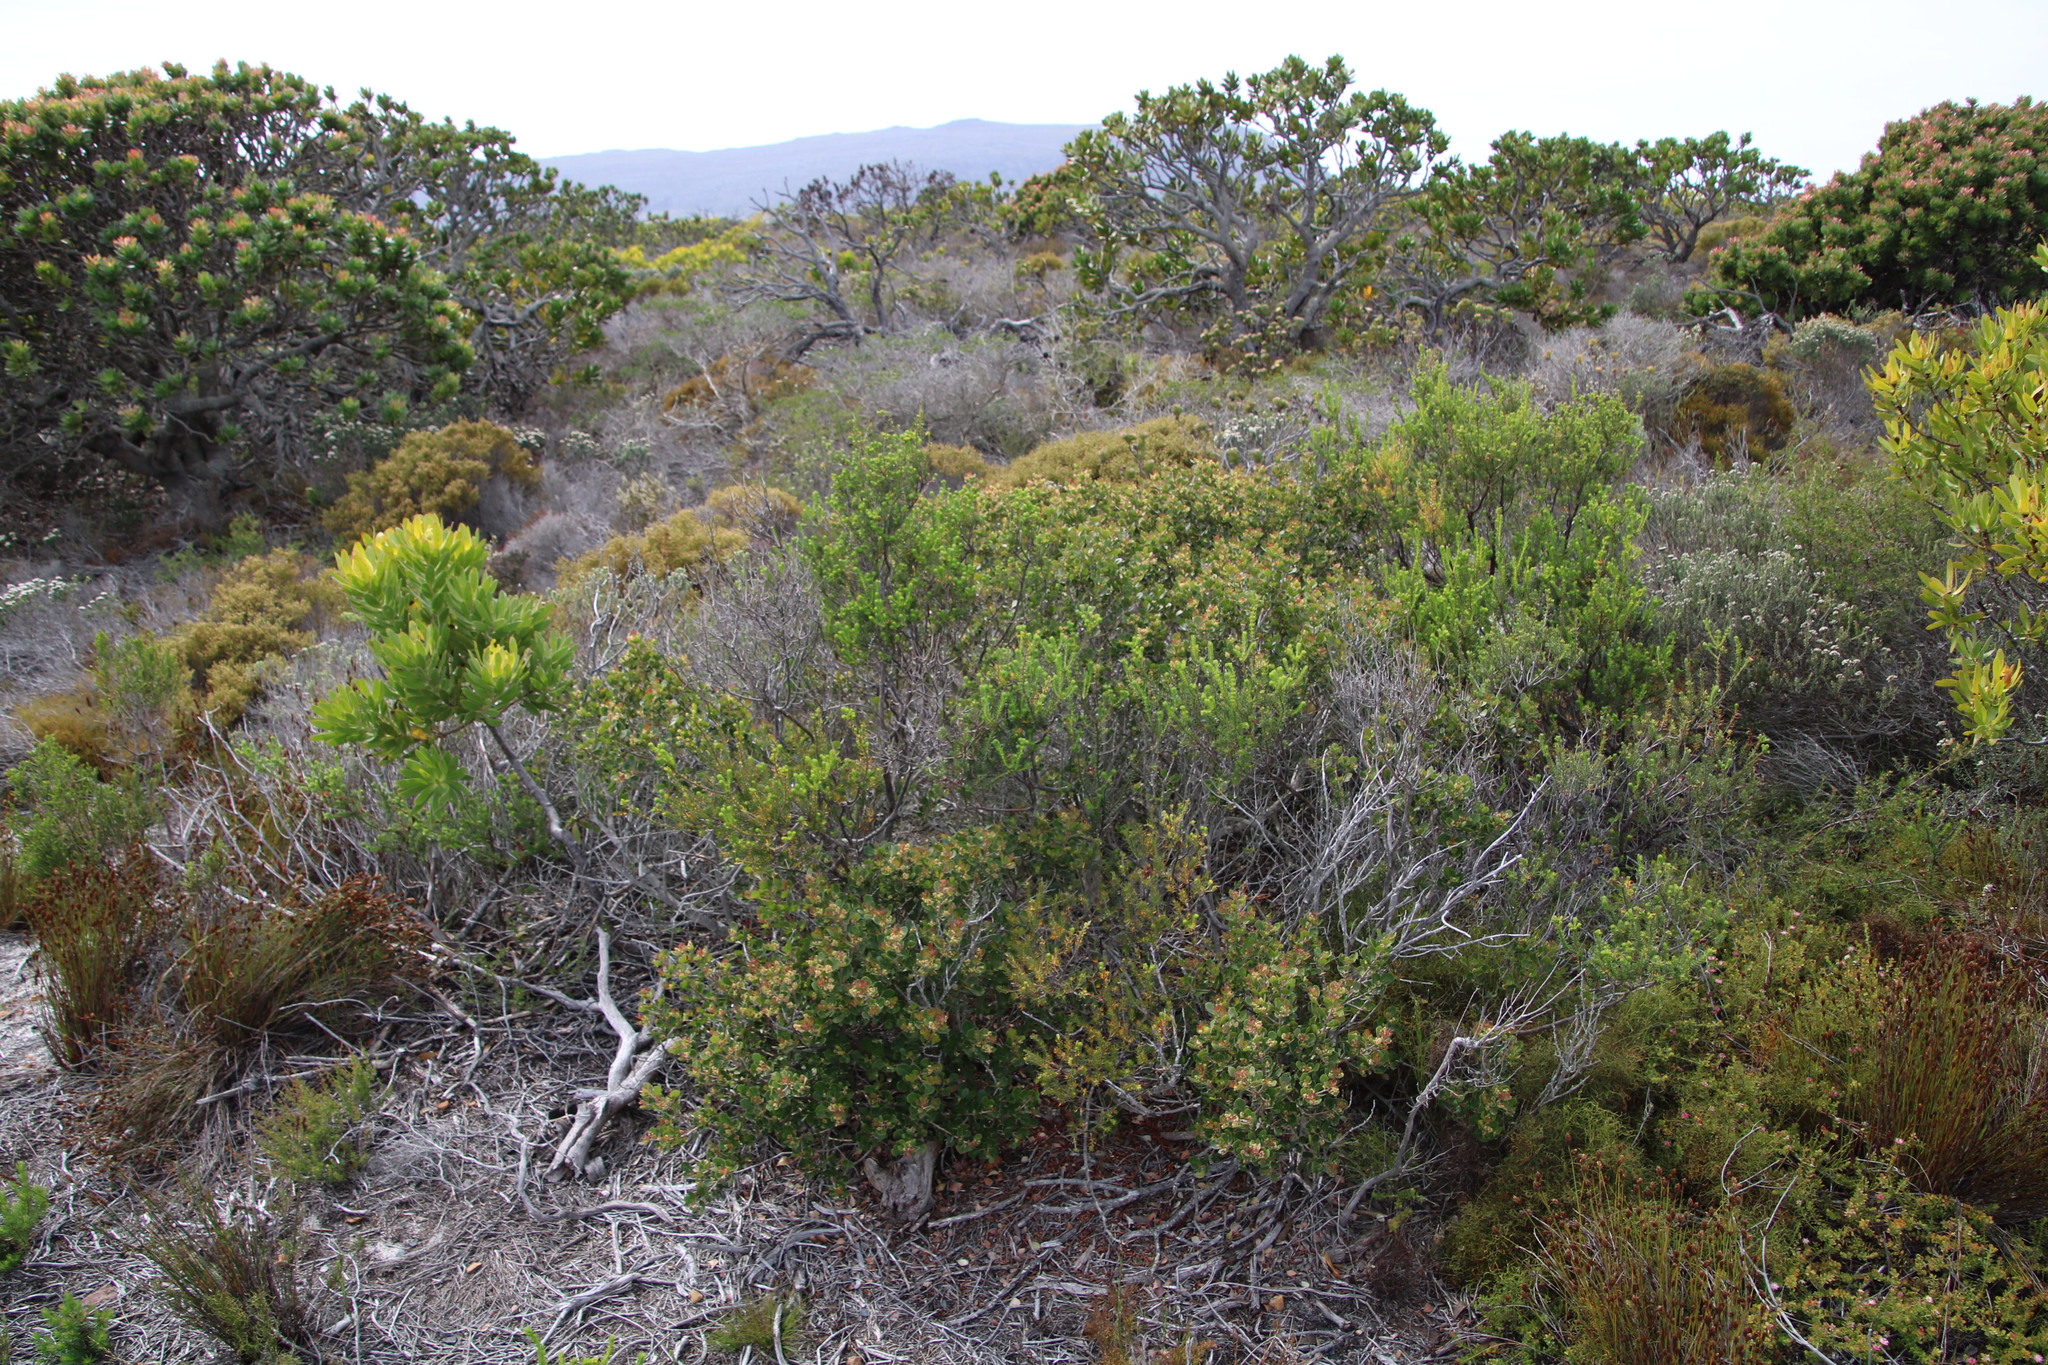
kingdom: Plantae
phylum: Tracheophyta
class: Magnoliopsida
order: Sapindales
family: Anacardiaceae
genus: Searsia
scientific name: Searsia lucida
